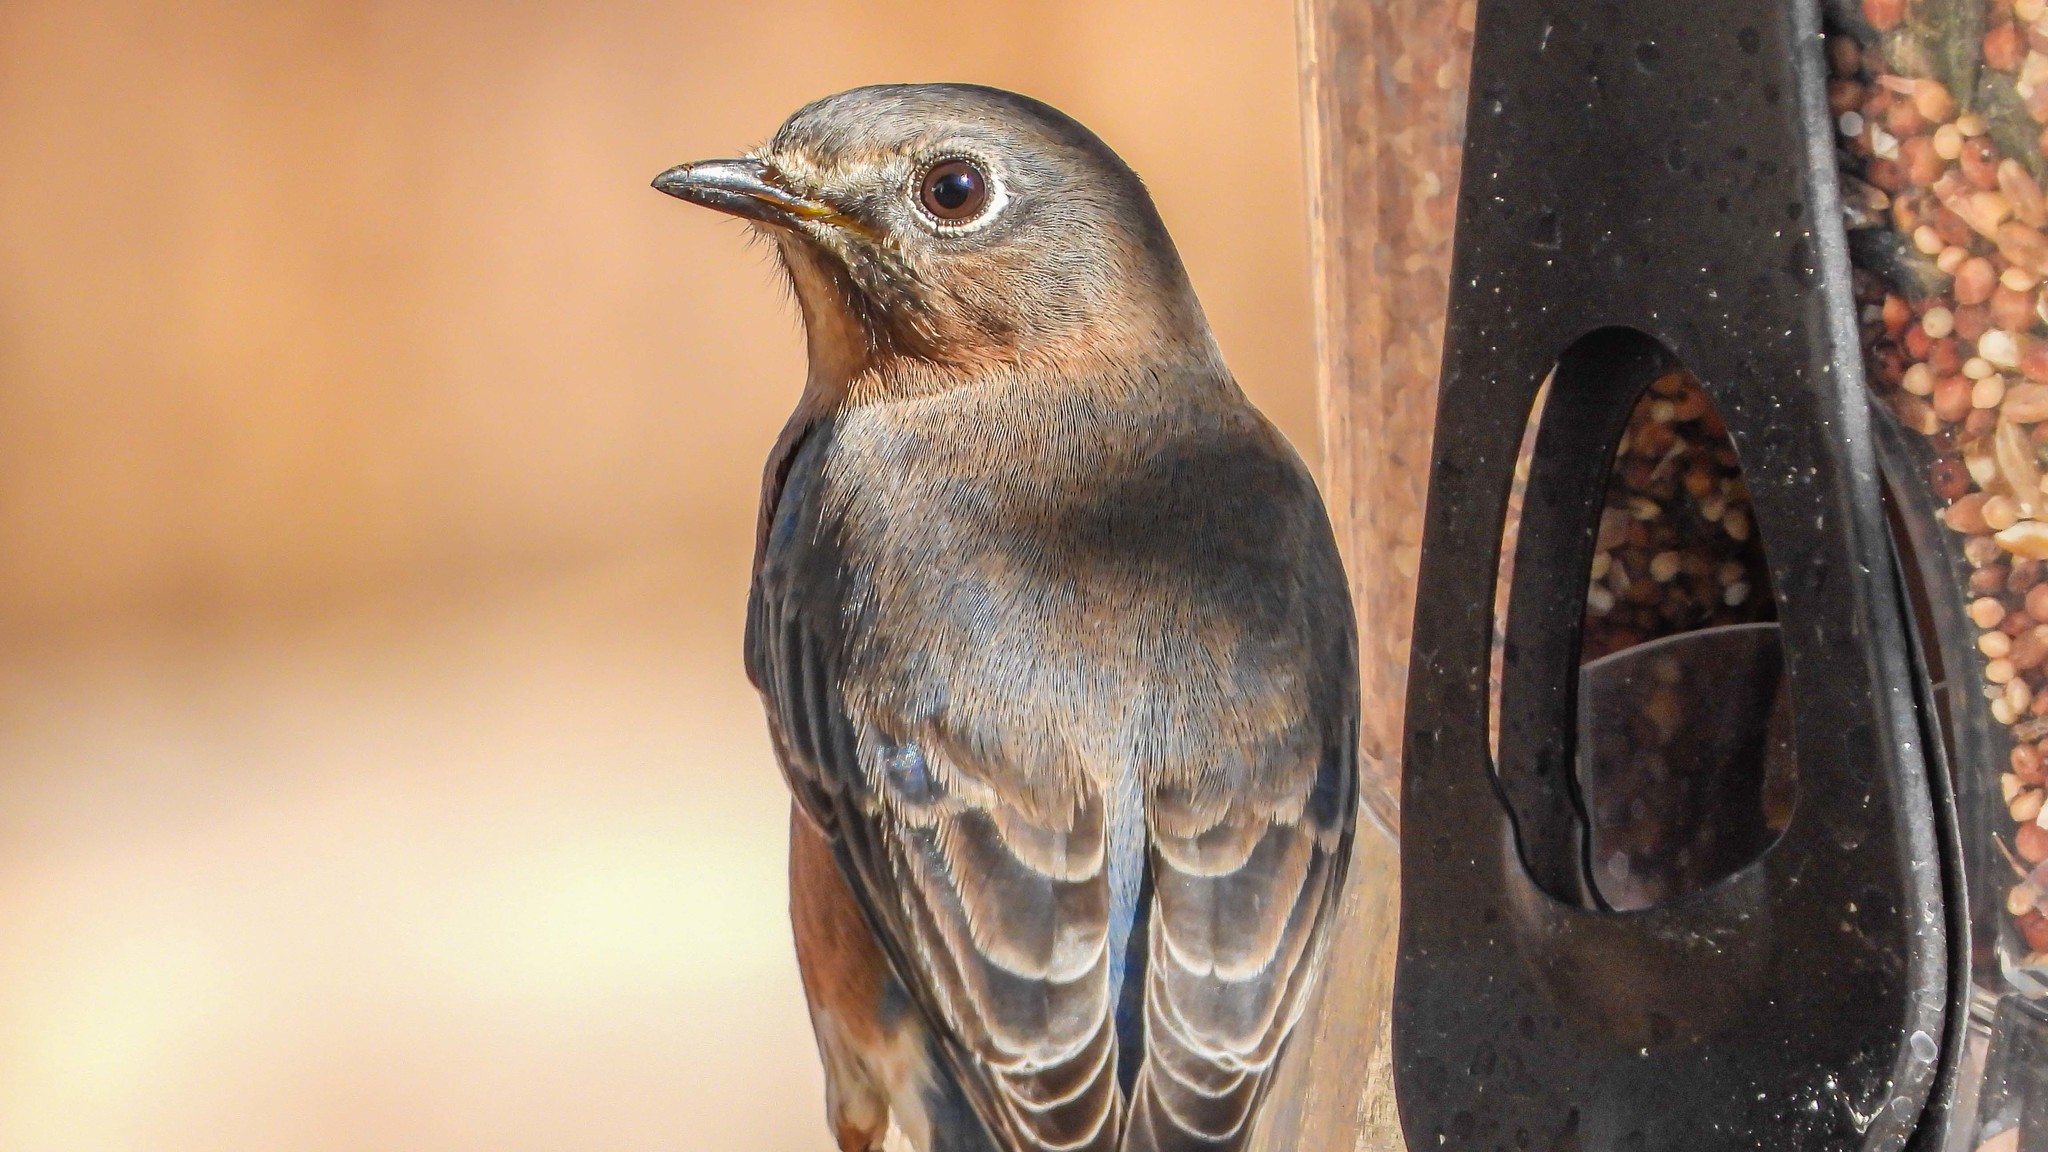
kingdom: Animalia
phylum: Chordata
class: Aves
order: Passeriformes
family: Turdidae
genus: Sialia
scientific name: Sialia sialis
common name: Eastern bluebird
